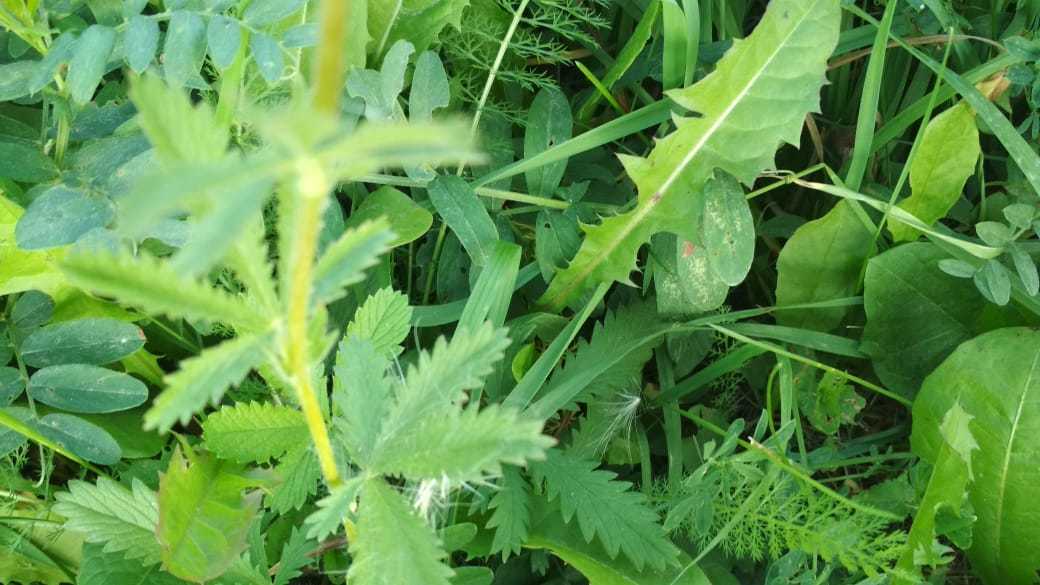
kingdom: Plantae
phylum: Tracheophyta
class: Magnoliopsida
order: Rosales
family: Rosaceae
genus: Potentilla
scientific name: Potentilla recta
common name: Sulphur cinquefoil
